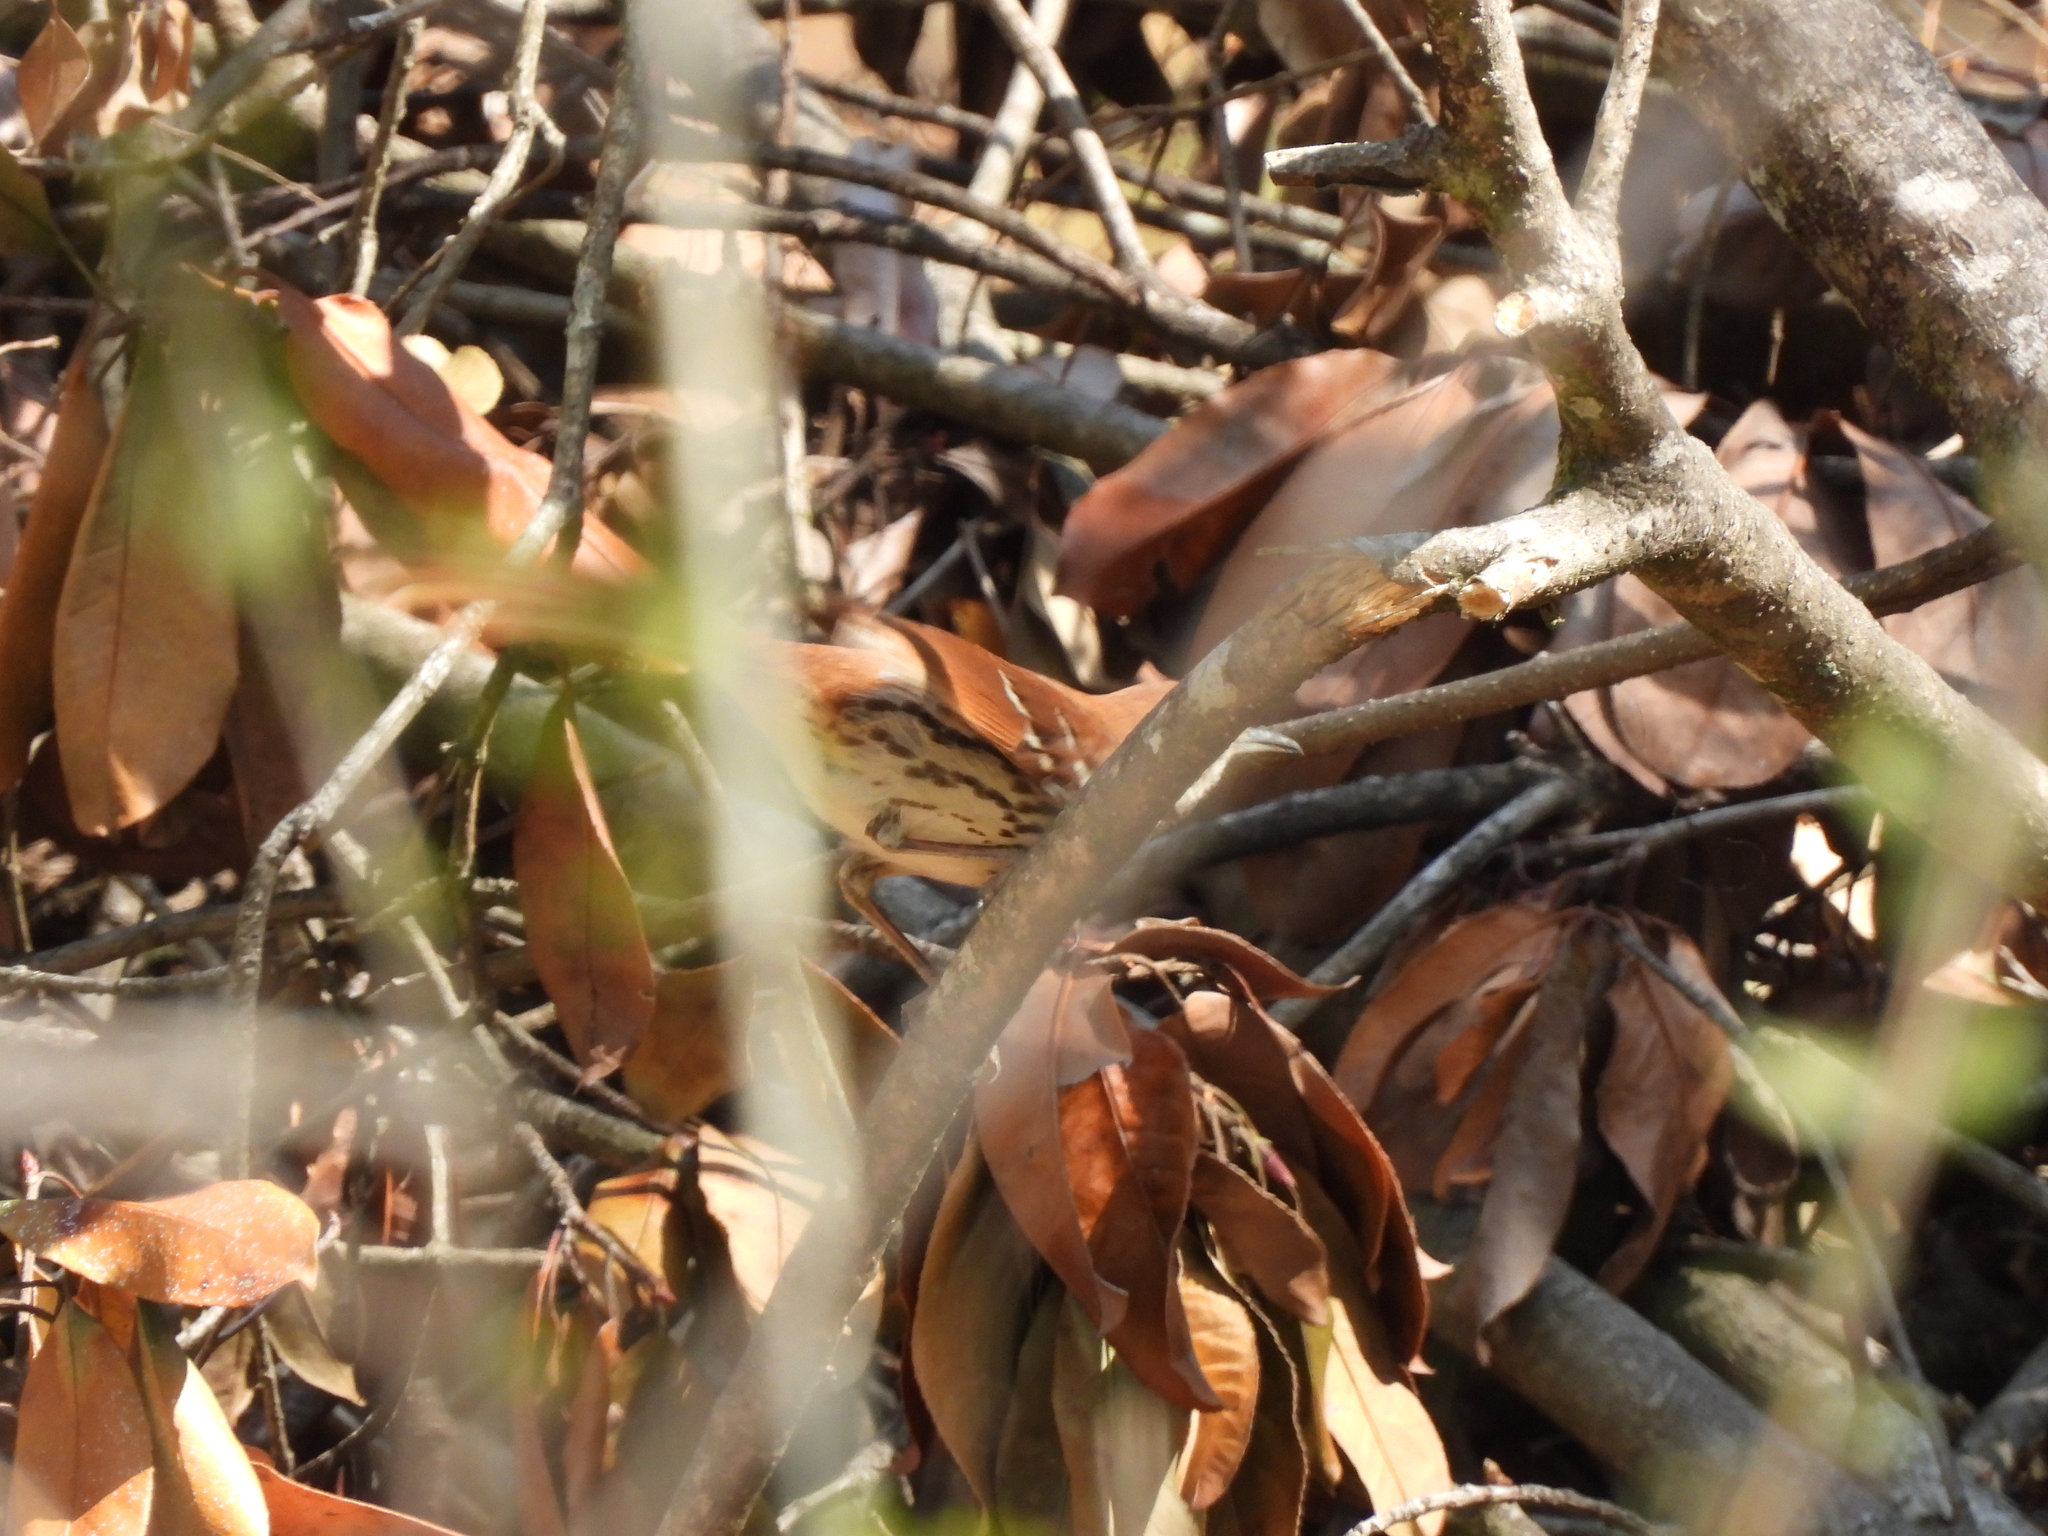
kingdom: Animalia
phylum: Chordata
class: Aves
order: Passeriformes
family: Mimidae
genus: Toxostoma
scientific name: Toxostoma rufum
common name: Brown thrasher
